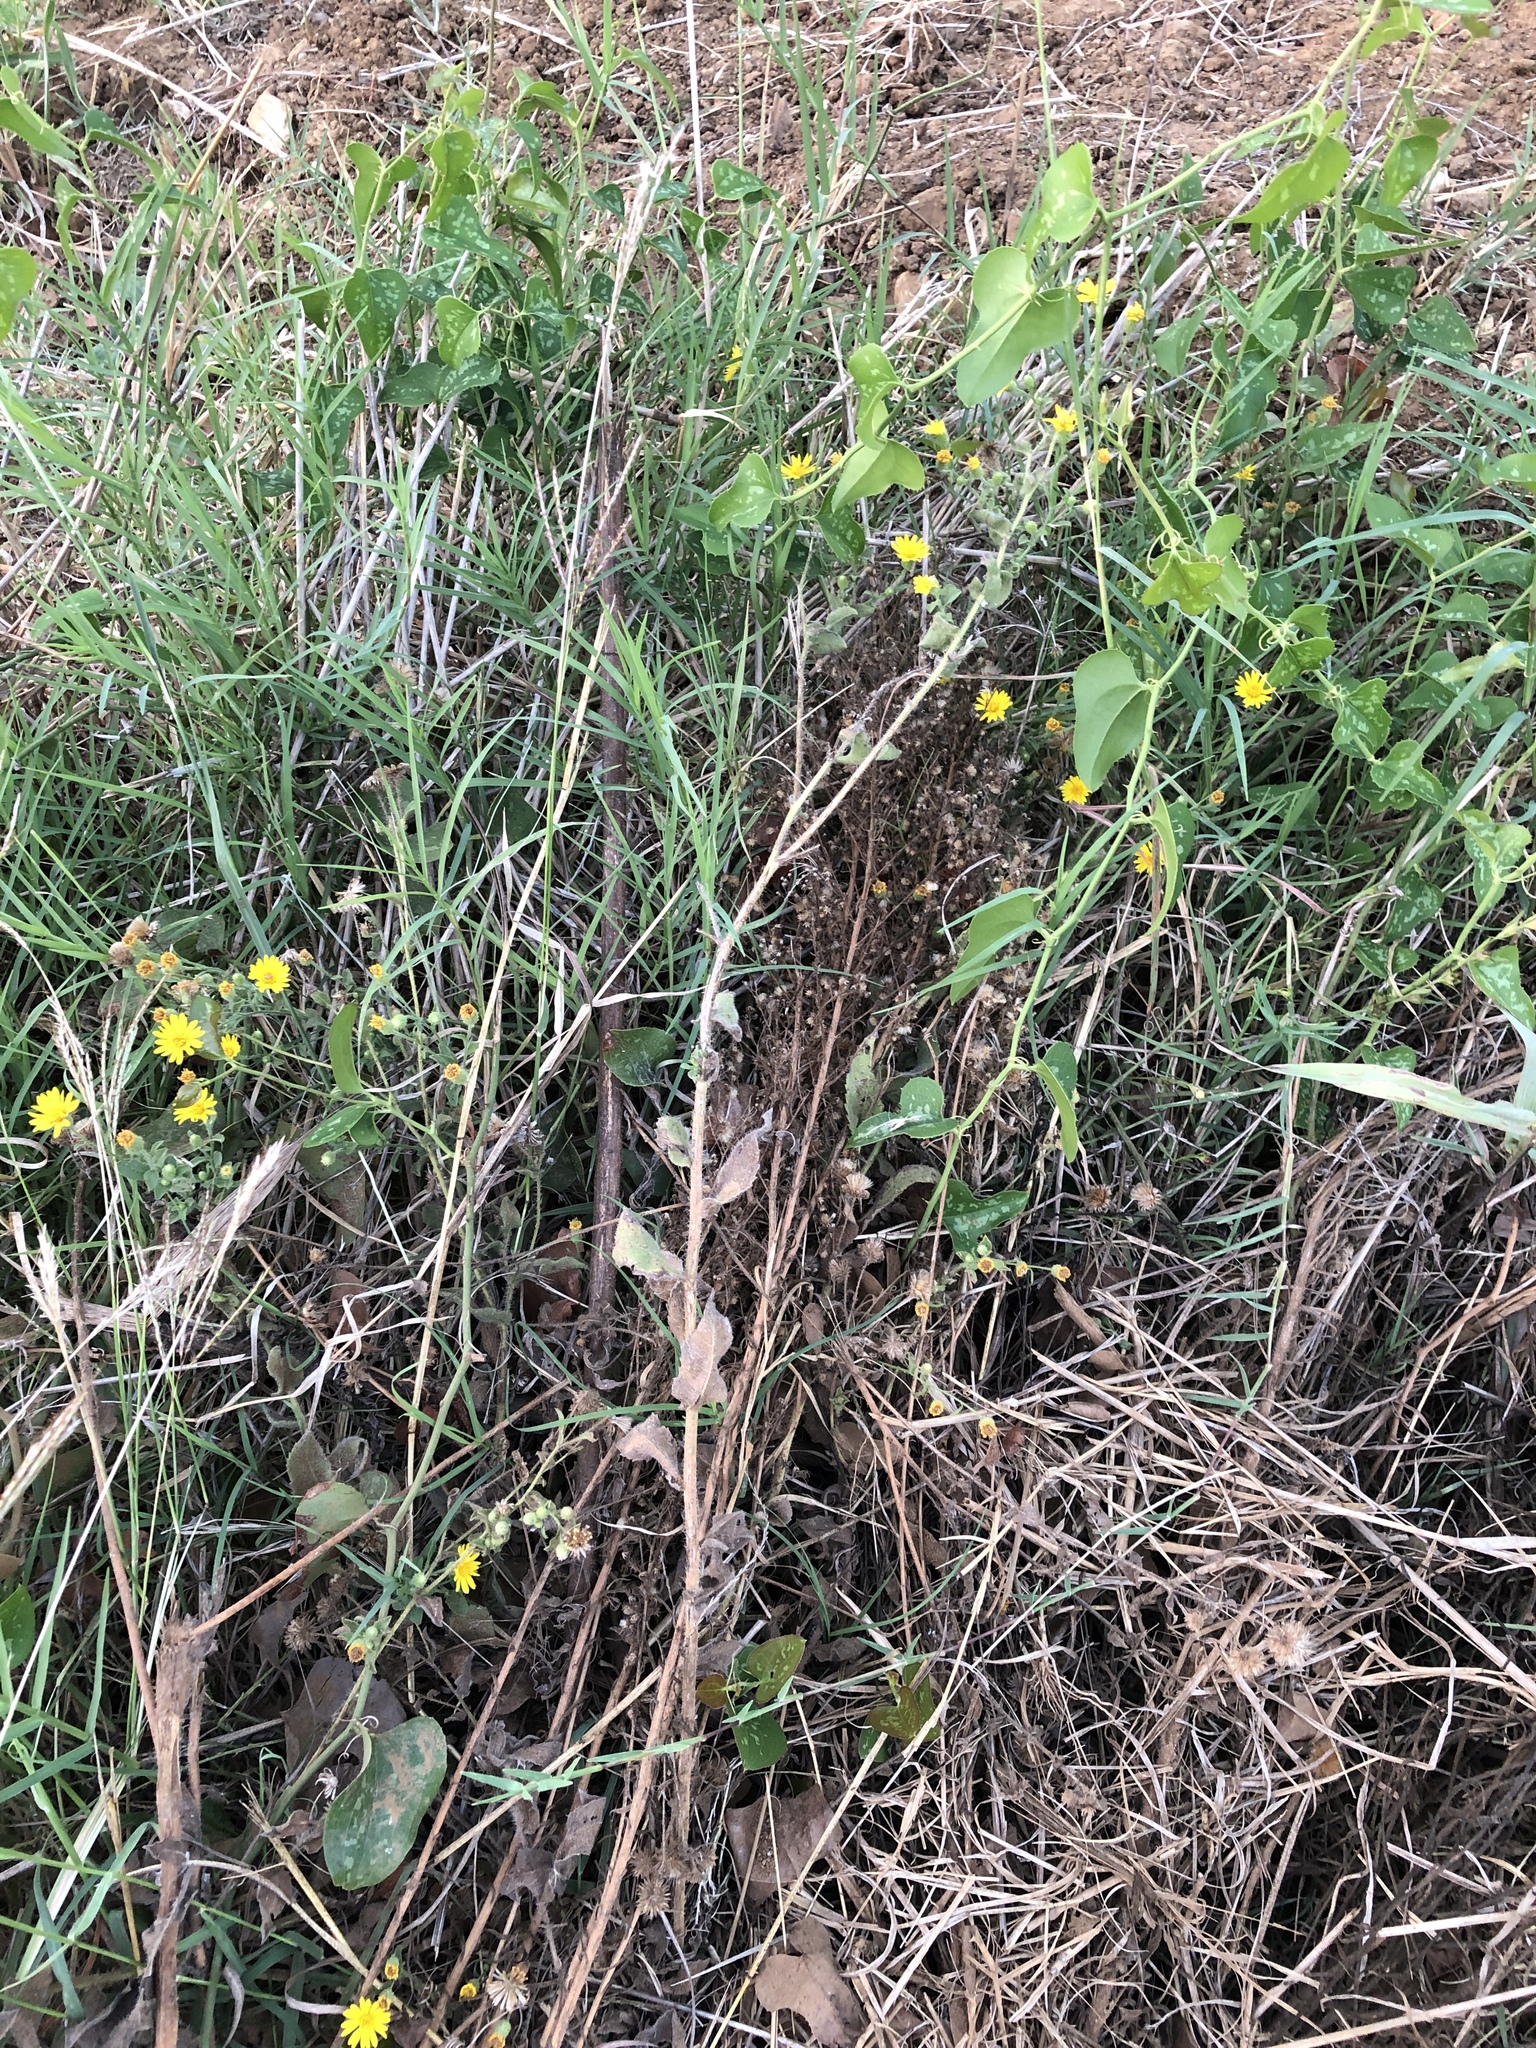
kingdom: Plantae
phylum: Tracheophyta
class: Magnoliopsida
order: Asterales
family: Asteraceae
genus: Heterotheca
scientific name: Heterotheca subaxillaris
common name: Camphorweed
